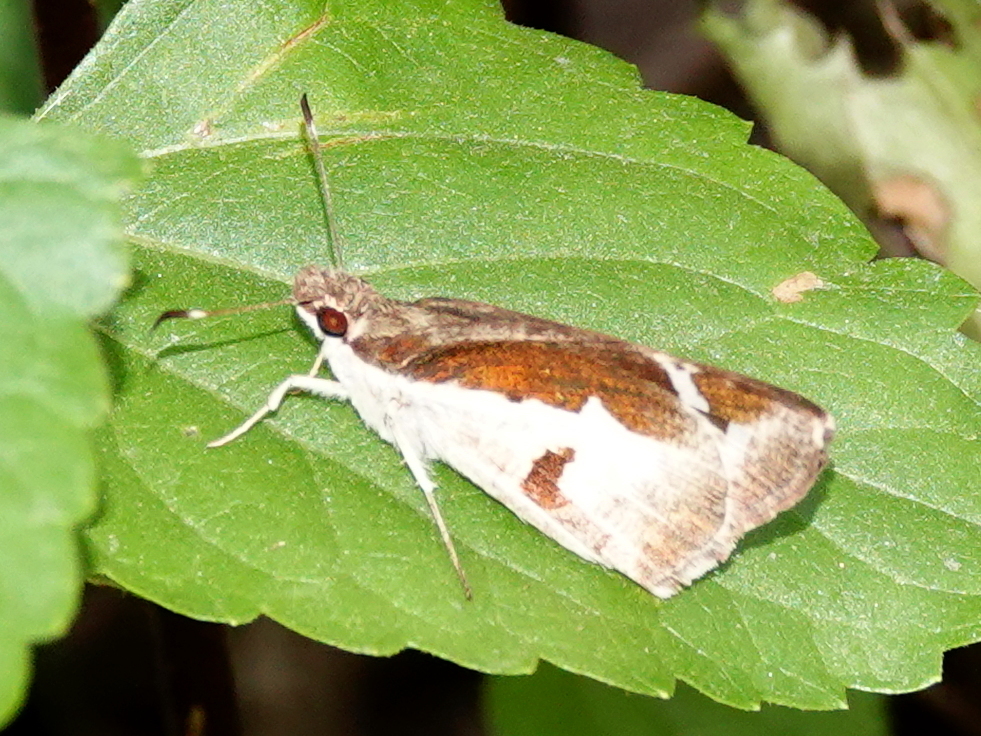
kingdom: Animalia
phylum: Arthropoda
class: Insecta
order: Lepidoptera
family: Hesperiidae
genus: Udaspes
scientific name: Udaspes folus
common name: Grass demon
